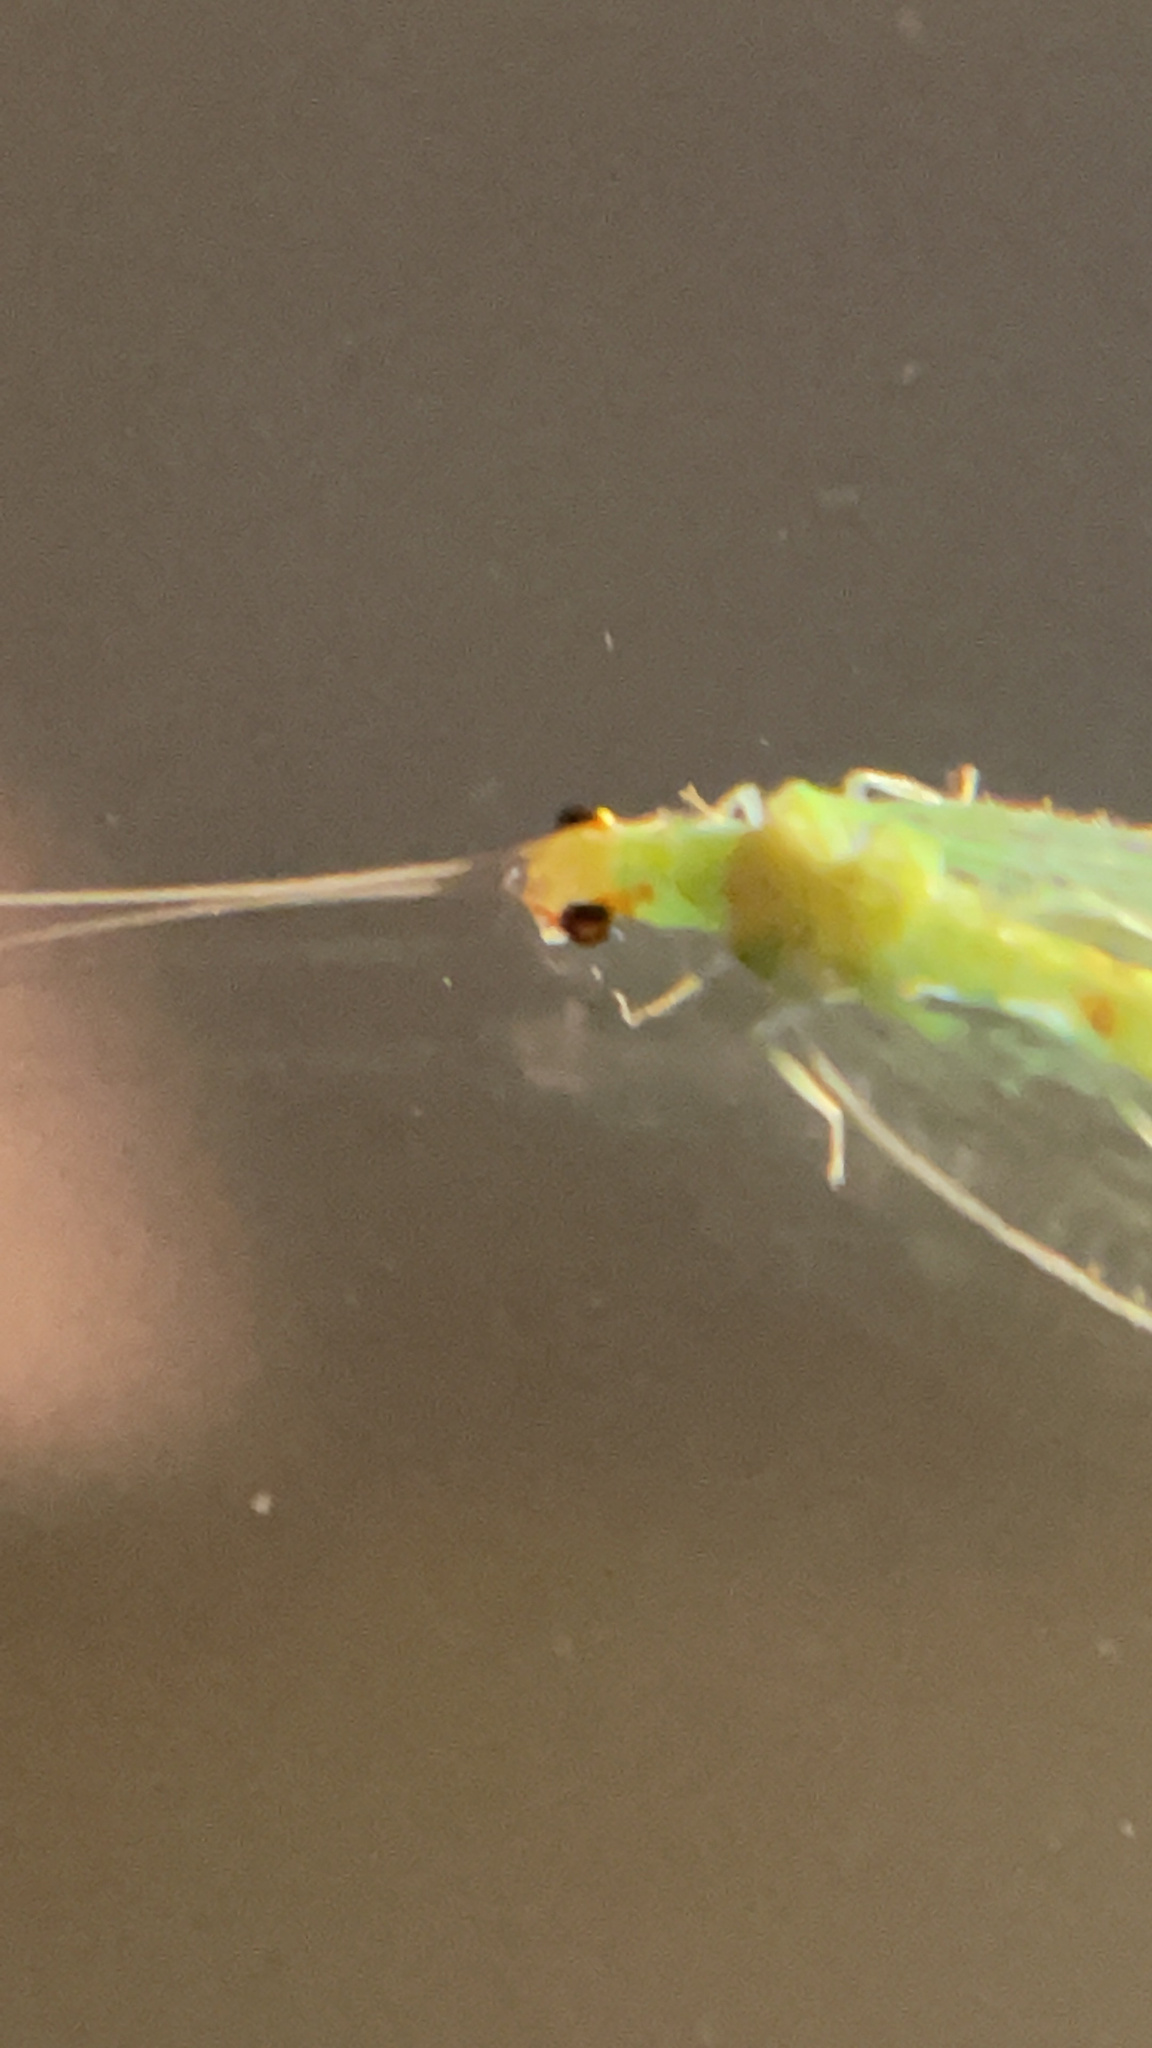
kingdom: Animalia
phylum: Arthropoda
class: Insecta
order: Neuroptera
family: Chrysopidae
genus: Chrysopa
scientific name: Chrysopa quadripunctata
